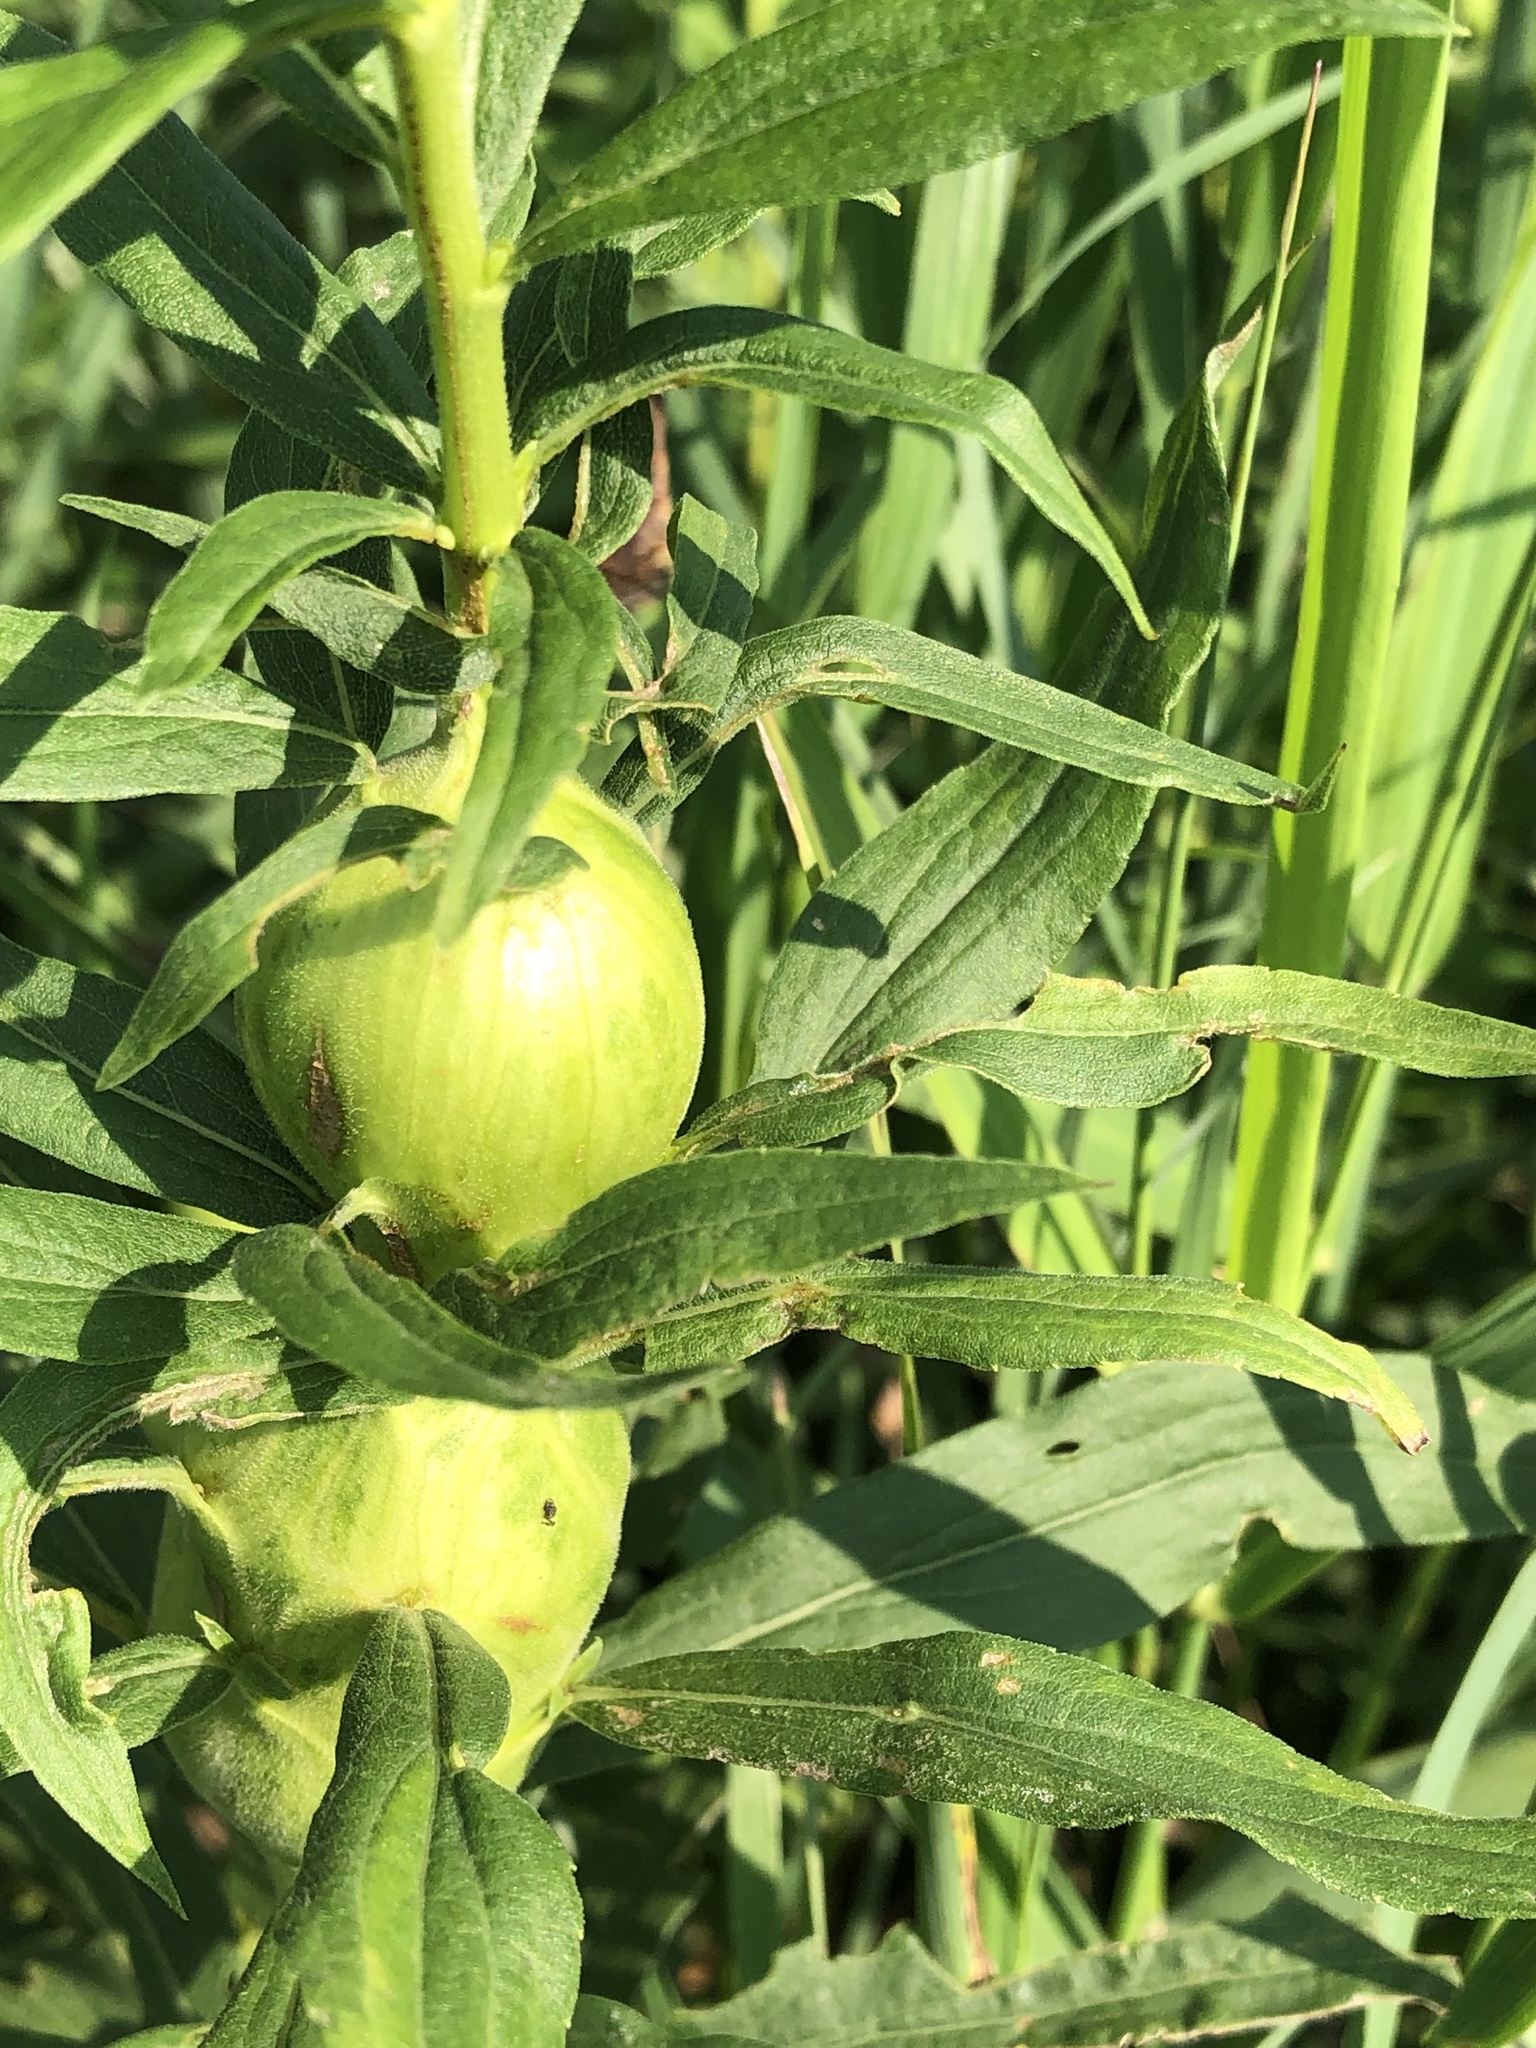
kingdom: Animalia
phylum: Arthropoda
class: Insecta
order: Diptera
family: Tephritidae
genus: Eurosta
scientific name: Eurosta solidaginis
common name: Goldenrod gall fly
